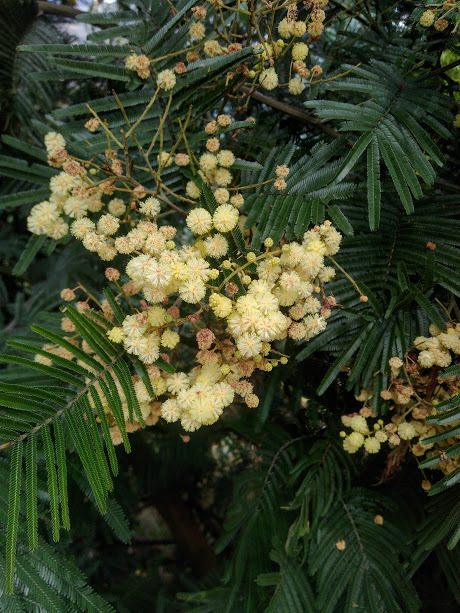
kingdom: Plantae
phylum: Tracheophyta
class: Magnoliopsida
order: Fabales
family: Fabaceae
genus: Acacia
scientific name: Acacia mearnsii
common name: Black wattle
